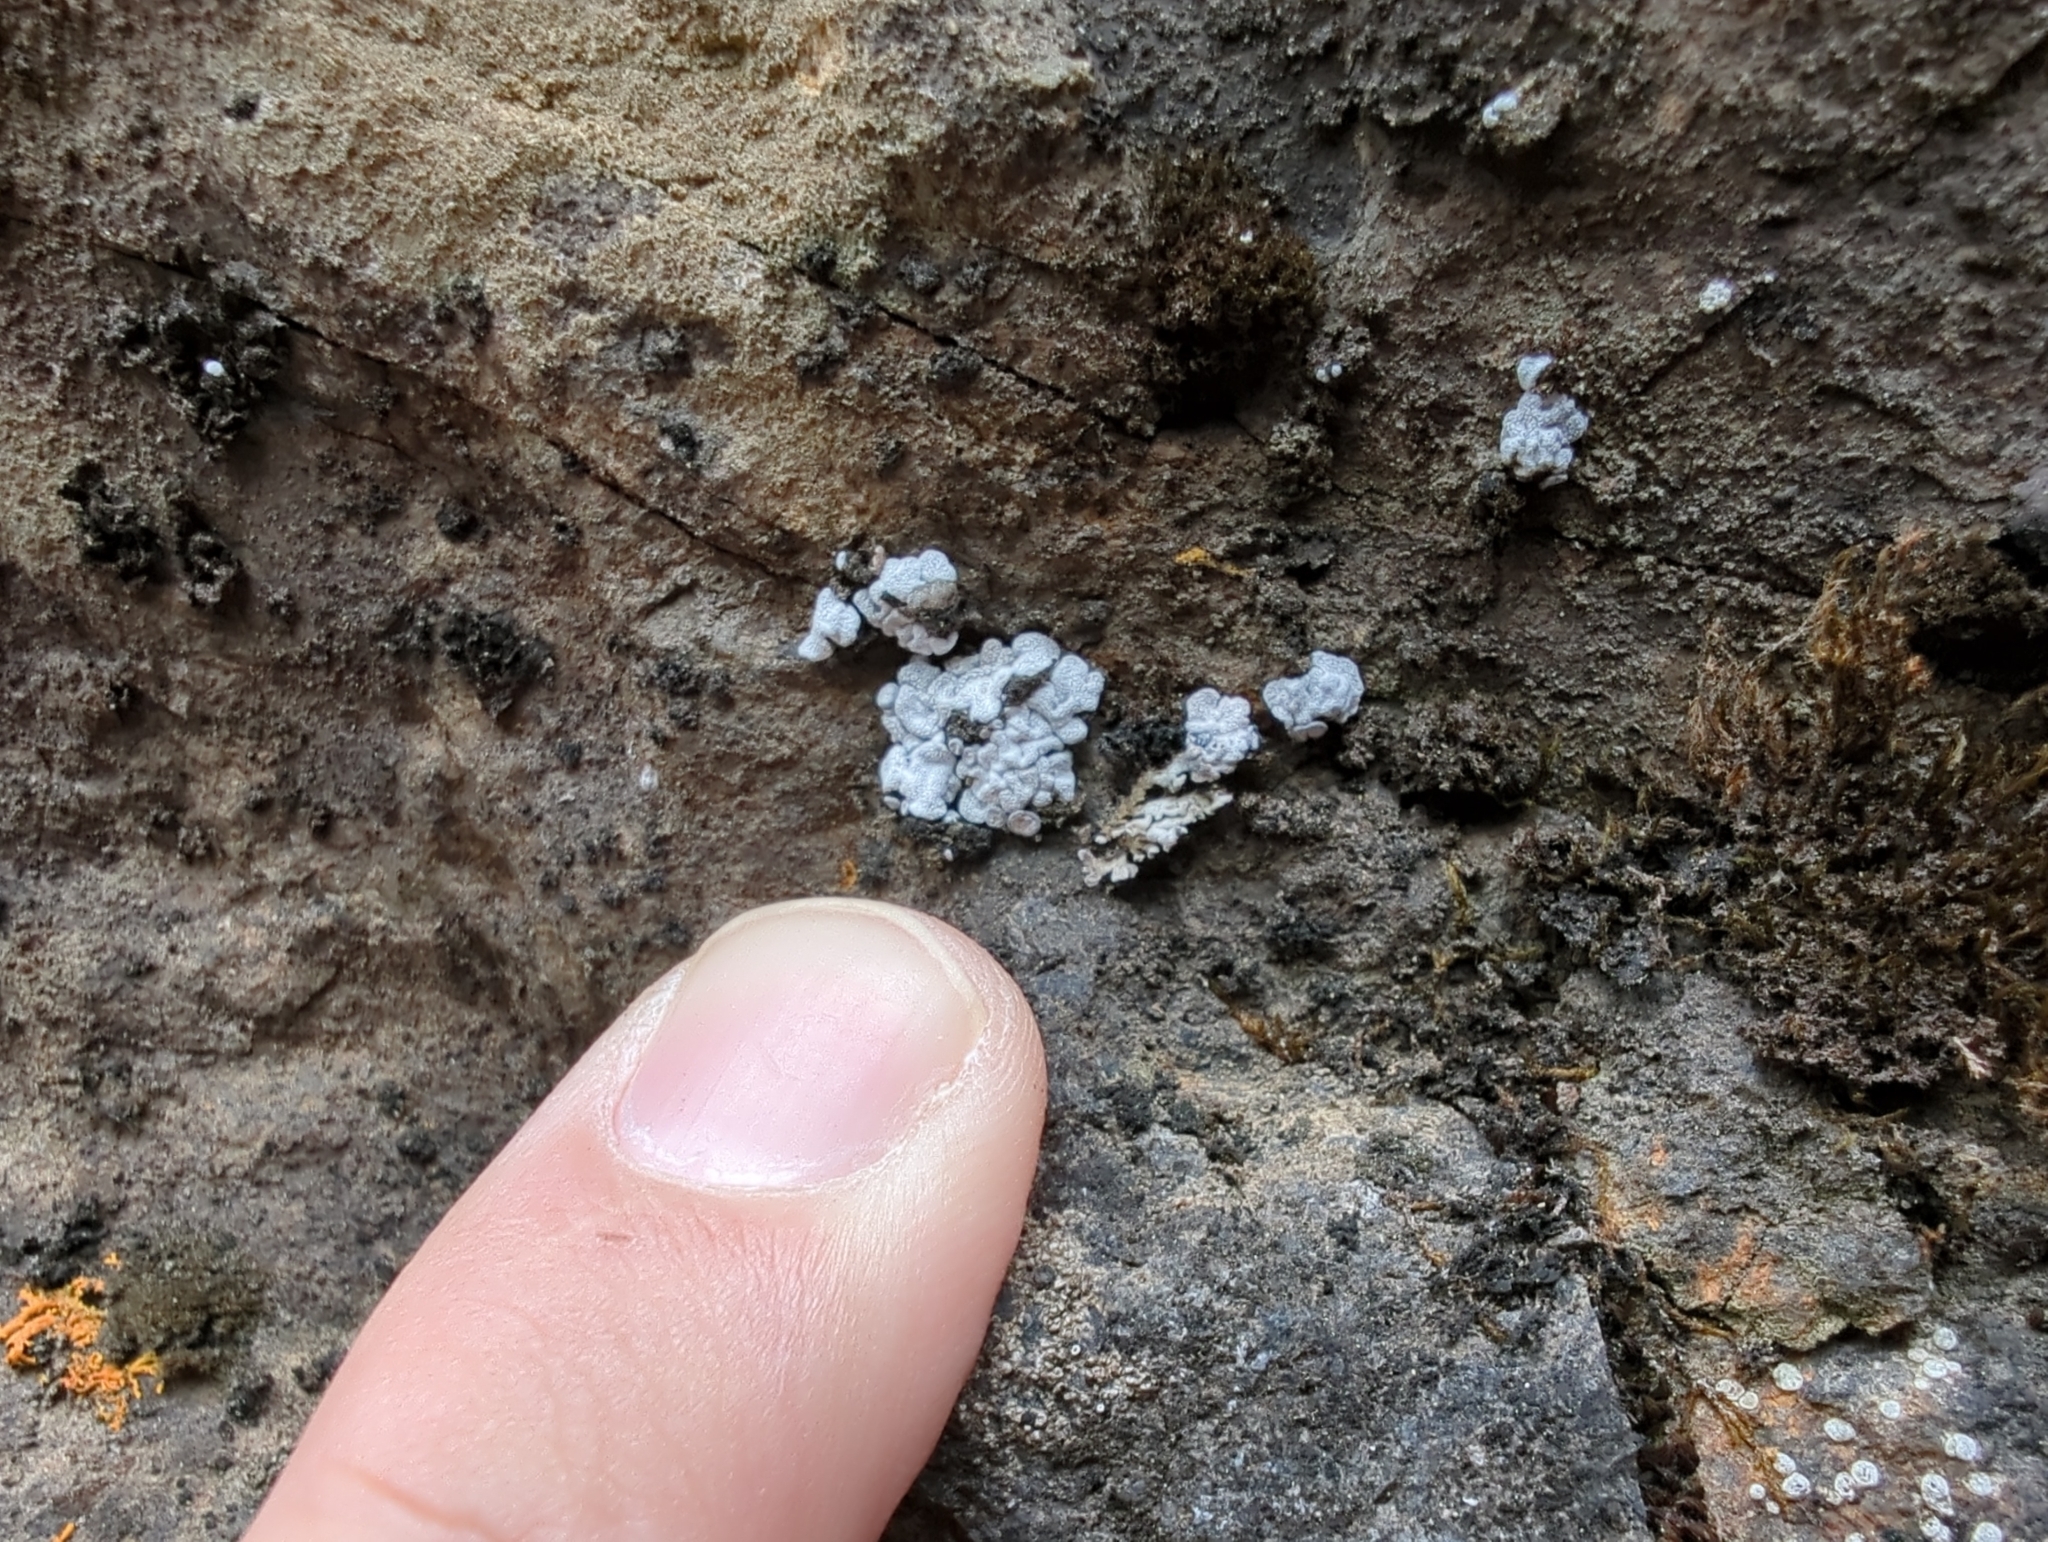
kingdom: Fungi
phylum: Ascomycota
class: Lecanoromycetes
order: Lecanorales
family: Ramalinaceae
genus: Toninia
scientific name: Toninia alutacea
